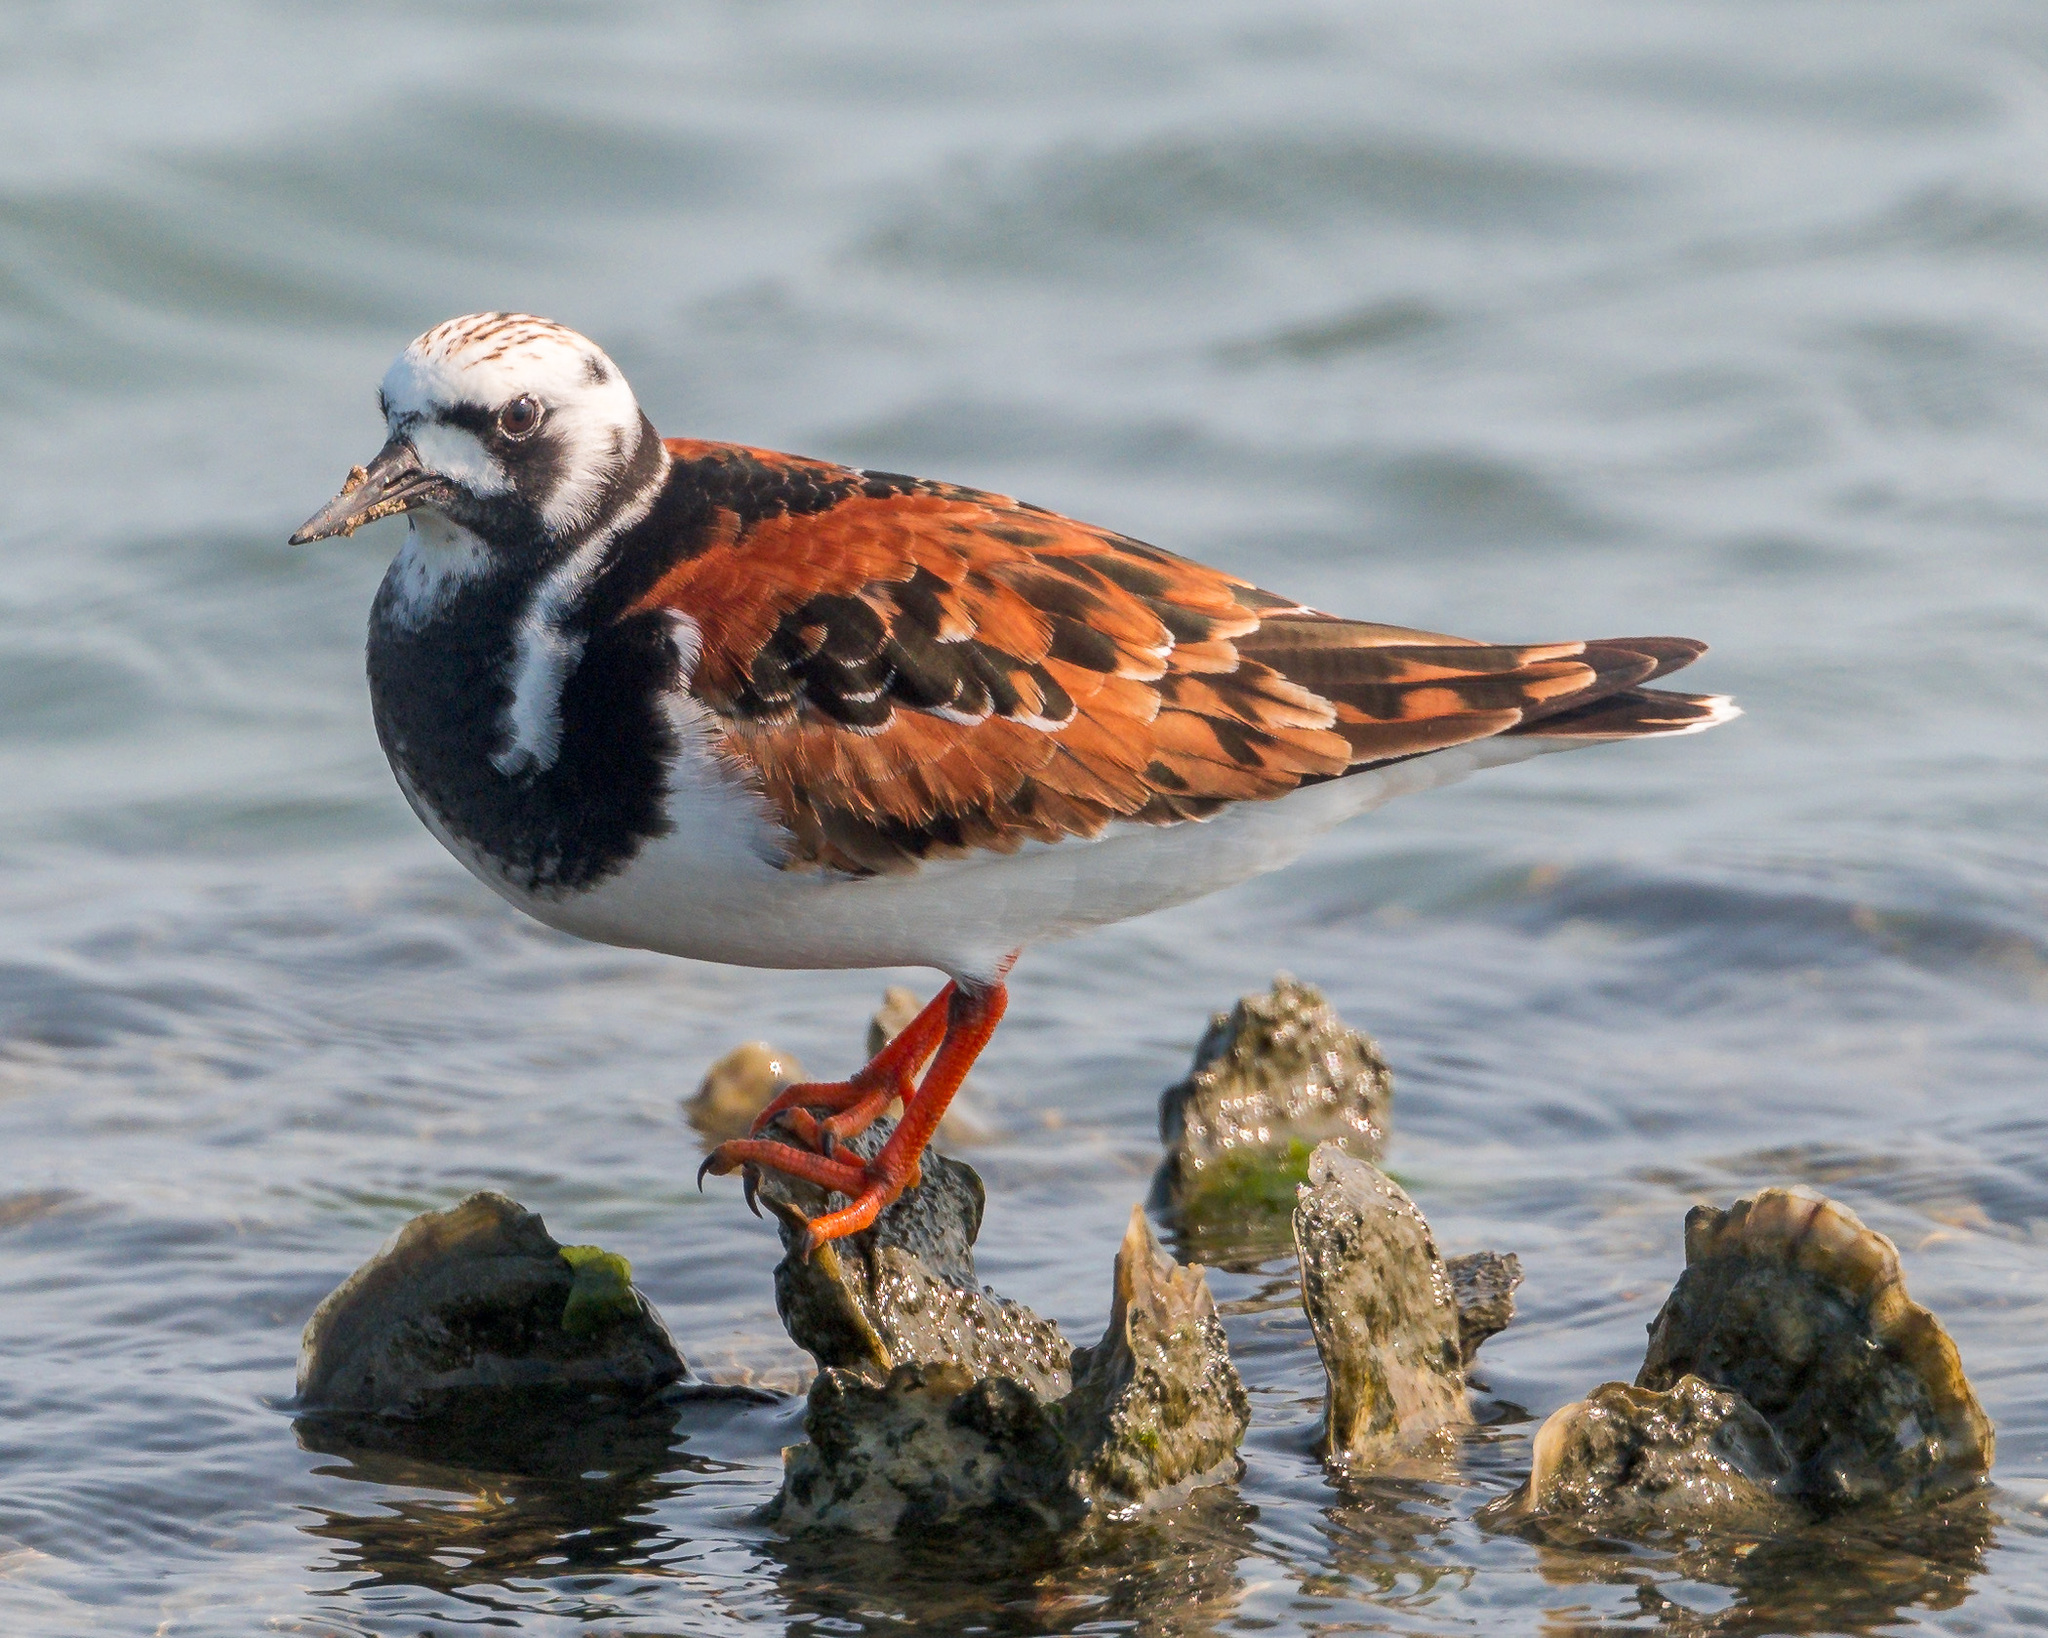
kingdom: Animalia
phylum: Chordata
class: Aves
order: Charadriiformes
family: Scolopacidae
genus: Arenaria
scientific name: Arenaria interpres
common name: Ruddy turnstone
